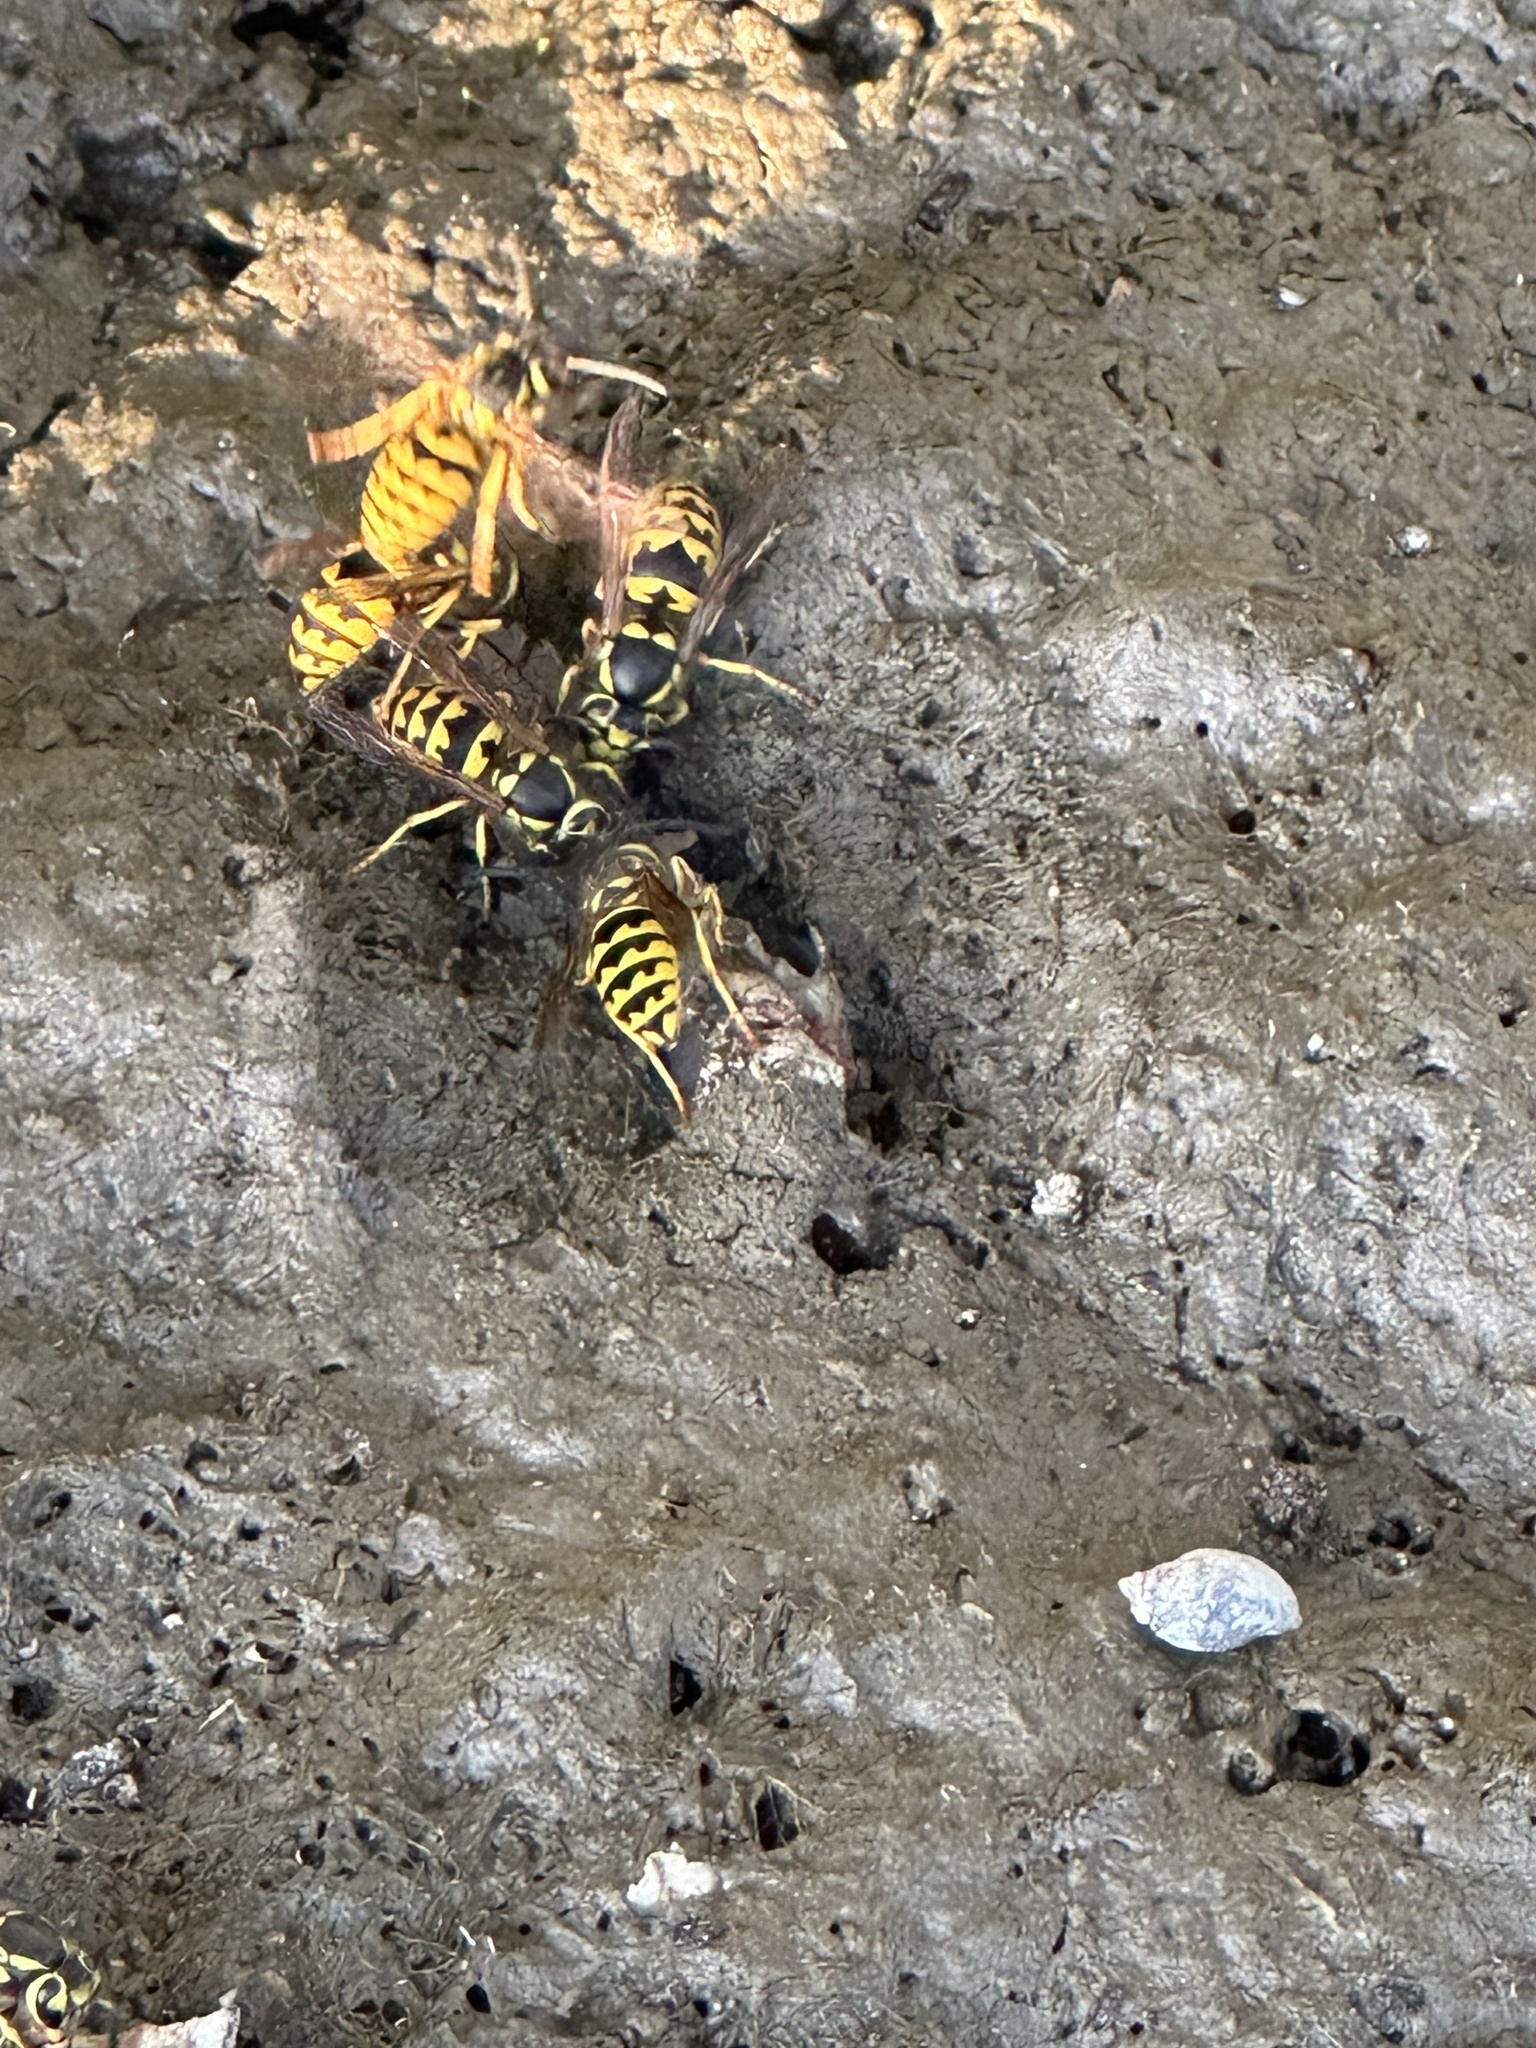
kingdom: Animalia
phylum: Arthropoda
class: Insecta
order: Hymenoptera
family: Vespidae
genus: Vespula
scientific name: Vespula pensylvanica
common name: Western yellowjacket
